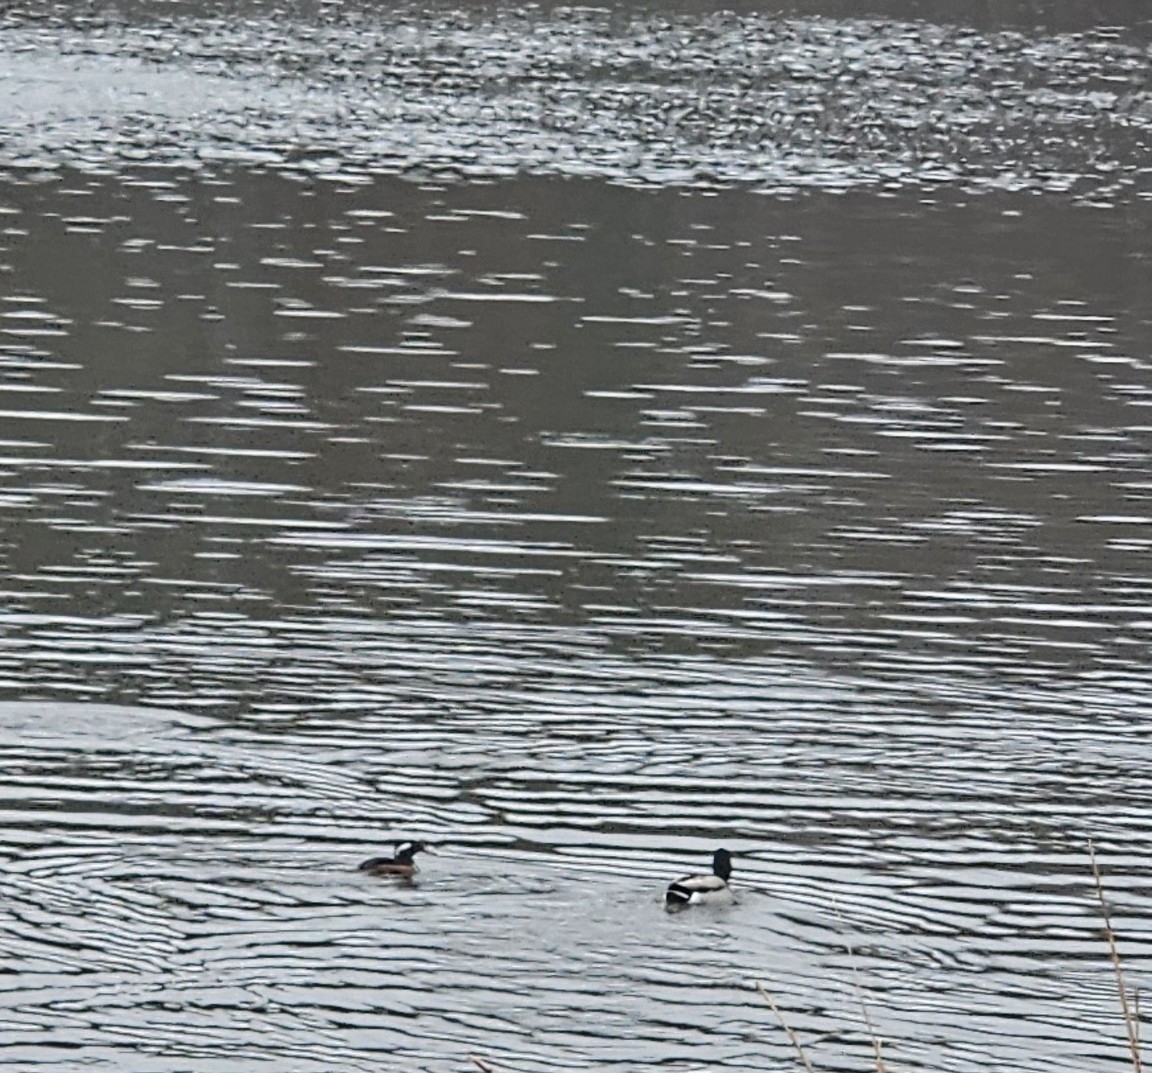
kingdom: Animalia
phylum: Chordata
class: Aves
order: Anseriformes
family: Anatidae
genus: Lophodytes
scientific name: Lophodytes cucullatus
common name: Hooded merganser
